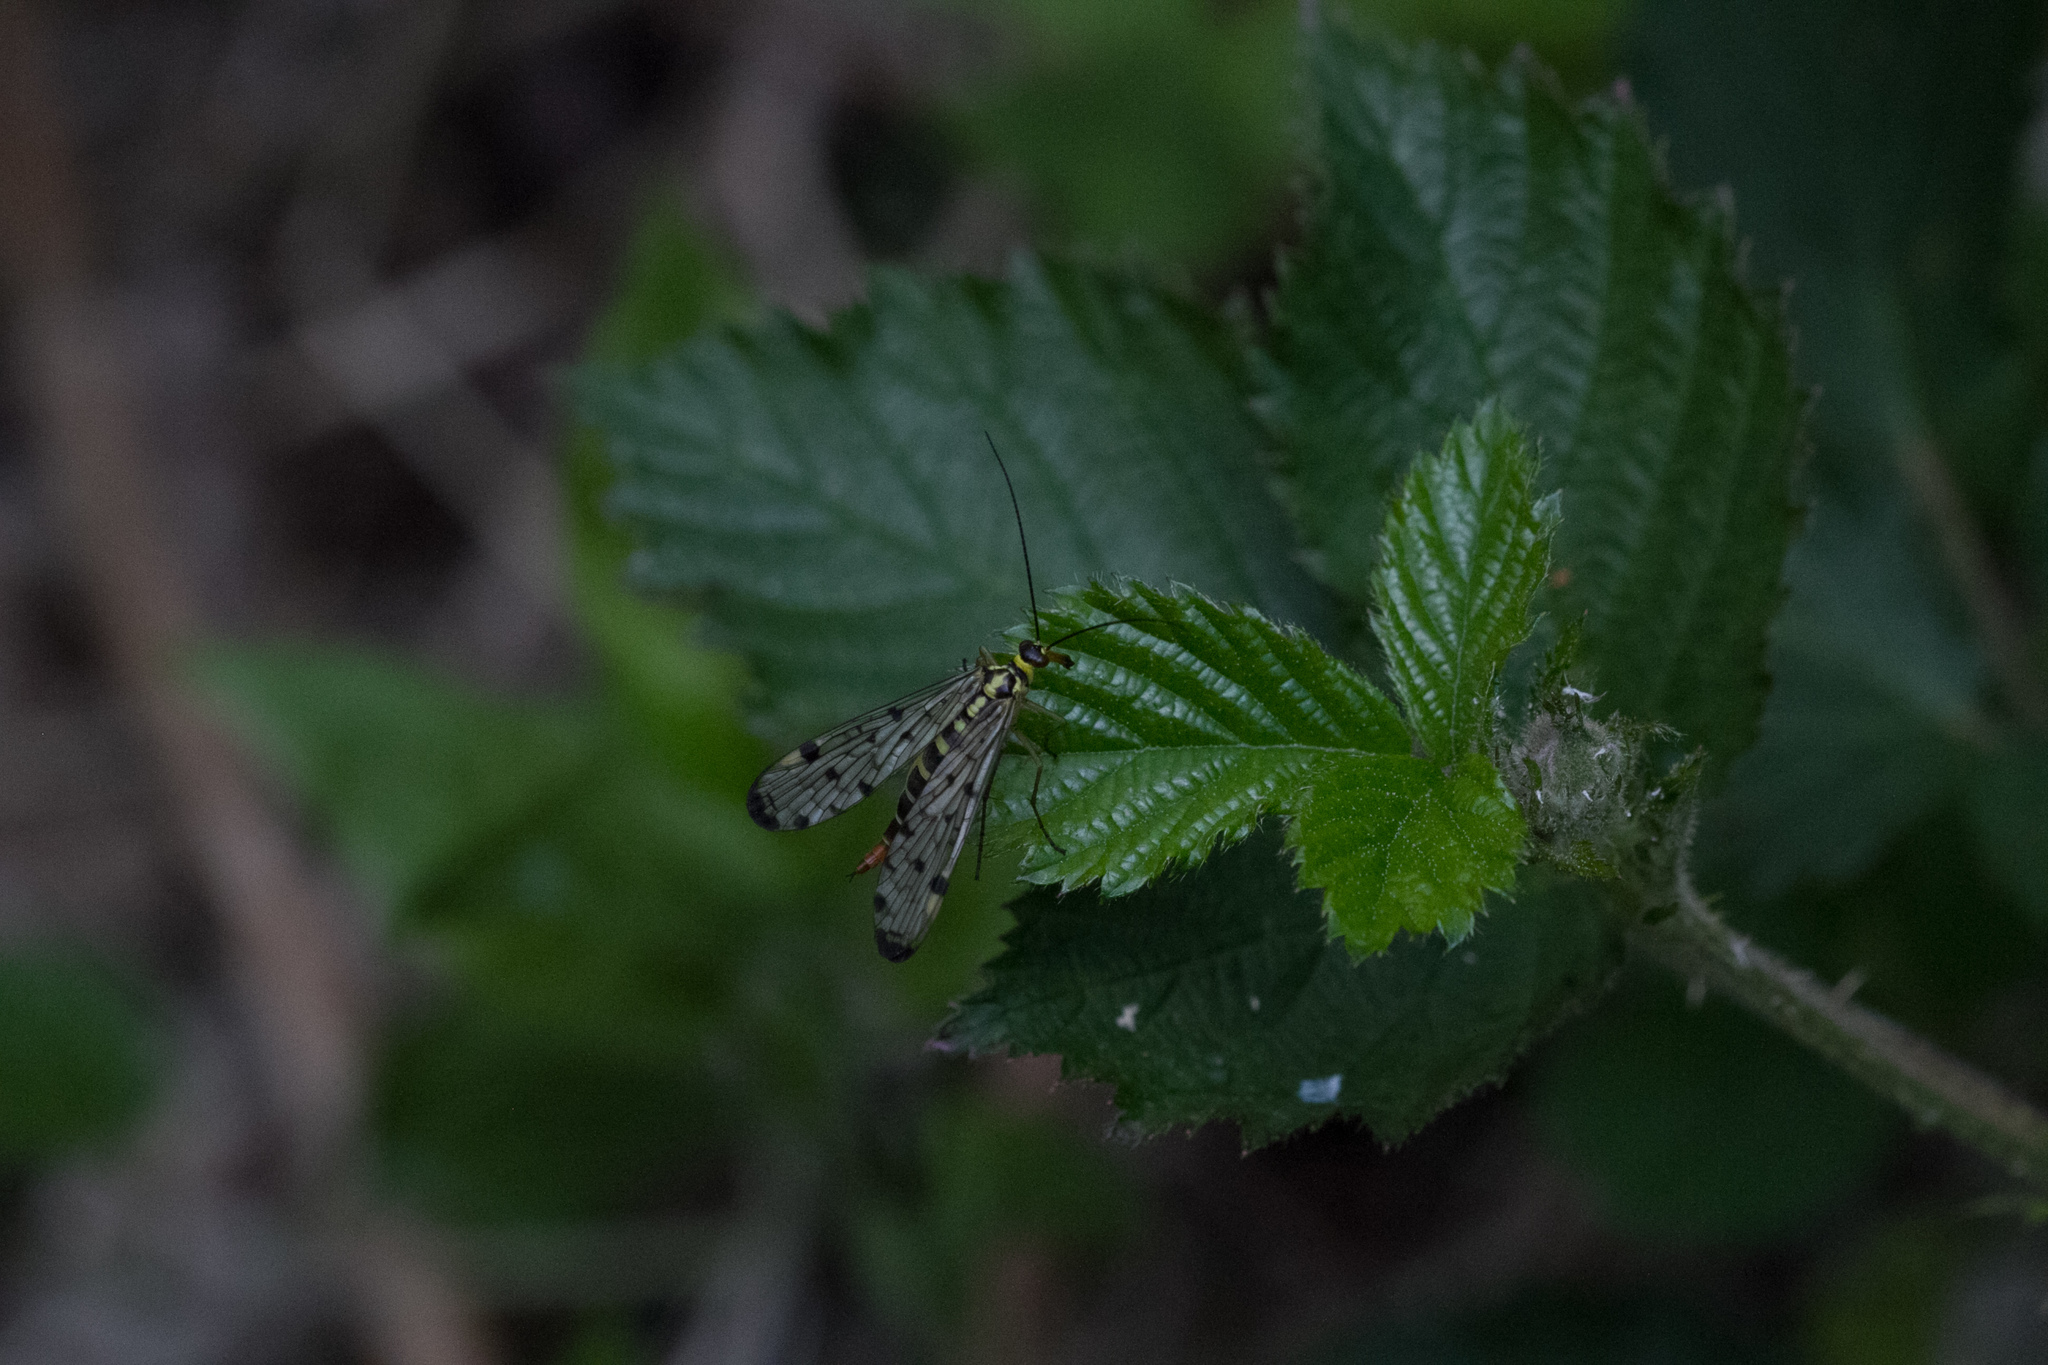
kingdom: Animalia
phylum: Arthropoda
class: Insecta
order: Mecoptera
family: Panorpidae
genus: Panorpa
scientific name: Panorpa germanica
